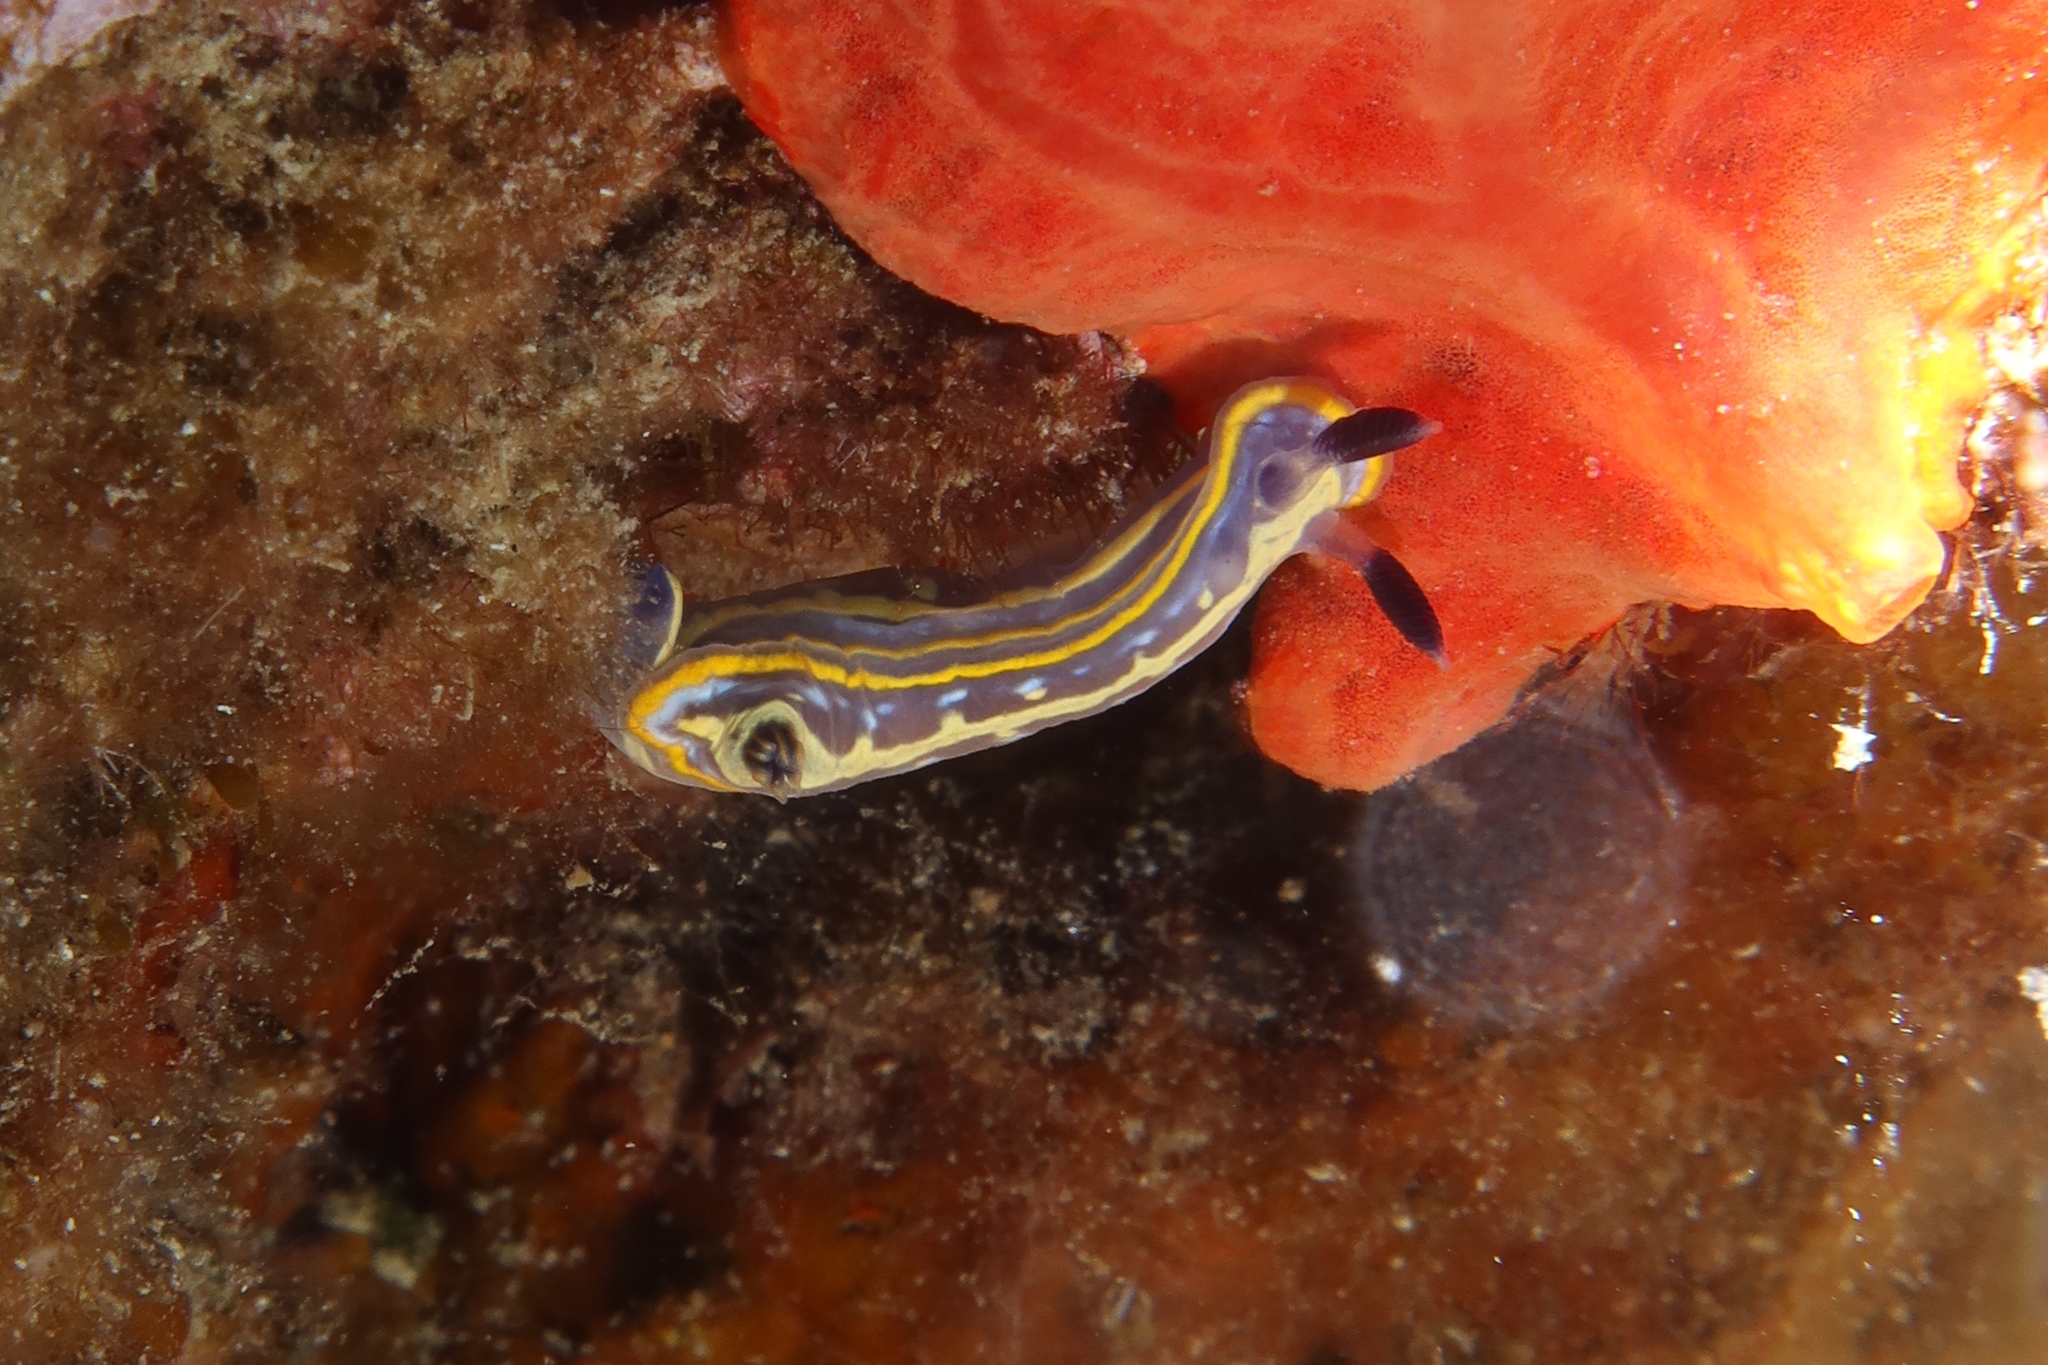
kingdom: Animalia
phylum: Mollusca
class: Gastropoda
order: Nudibranchia
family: Chromodorididae
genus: Felimare
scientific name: Felimare tricolor
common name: Tricolor doris
